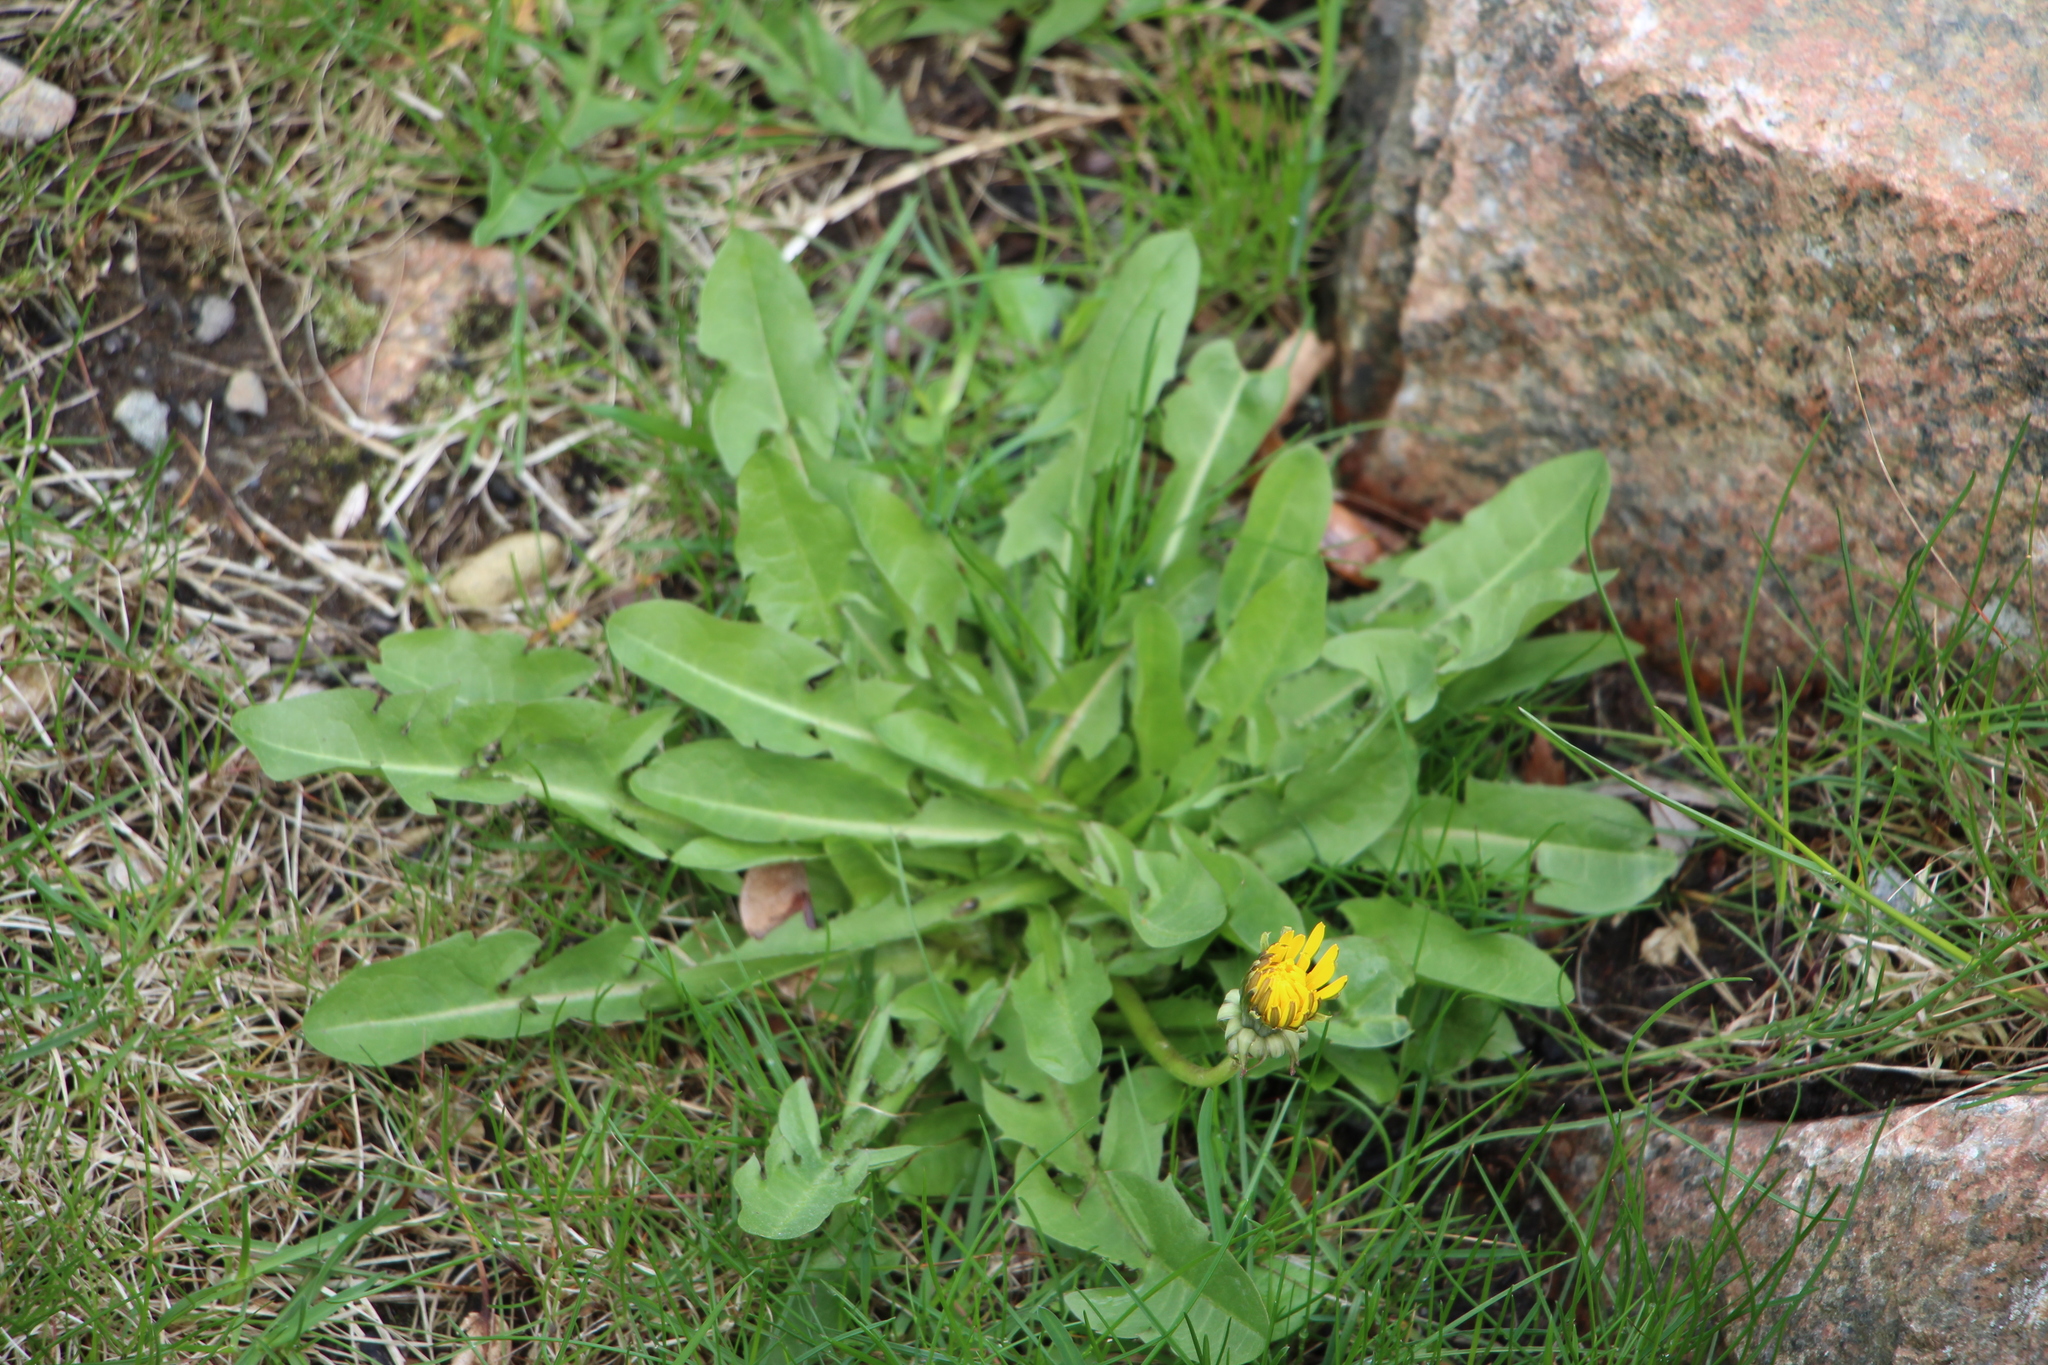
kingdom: Plantae
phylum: Tracheophyta
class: Magnoliopsida
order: Asterales
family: Asteraceae
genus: Taraxacum
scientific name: Taraxacum officinale
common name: Common dandelion
